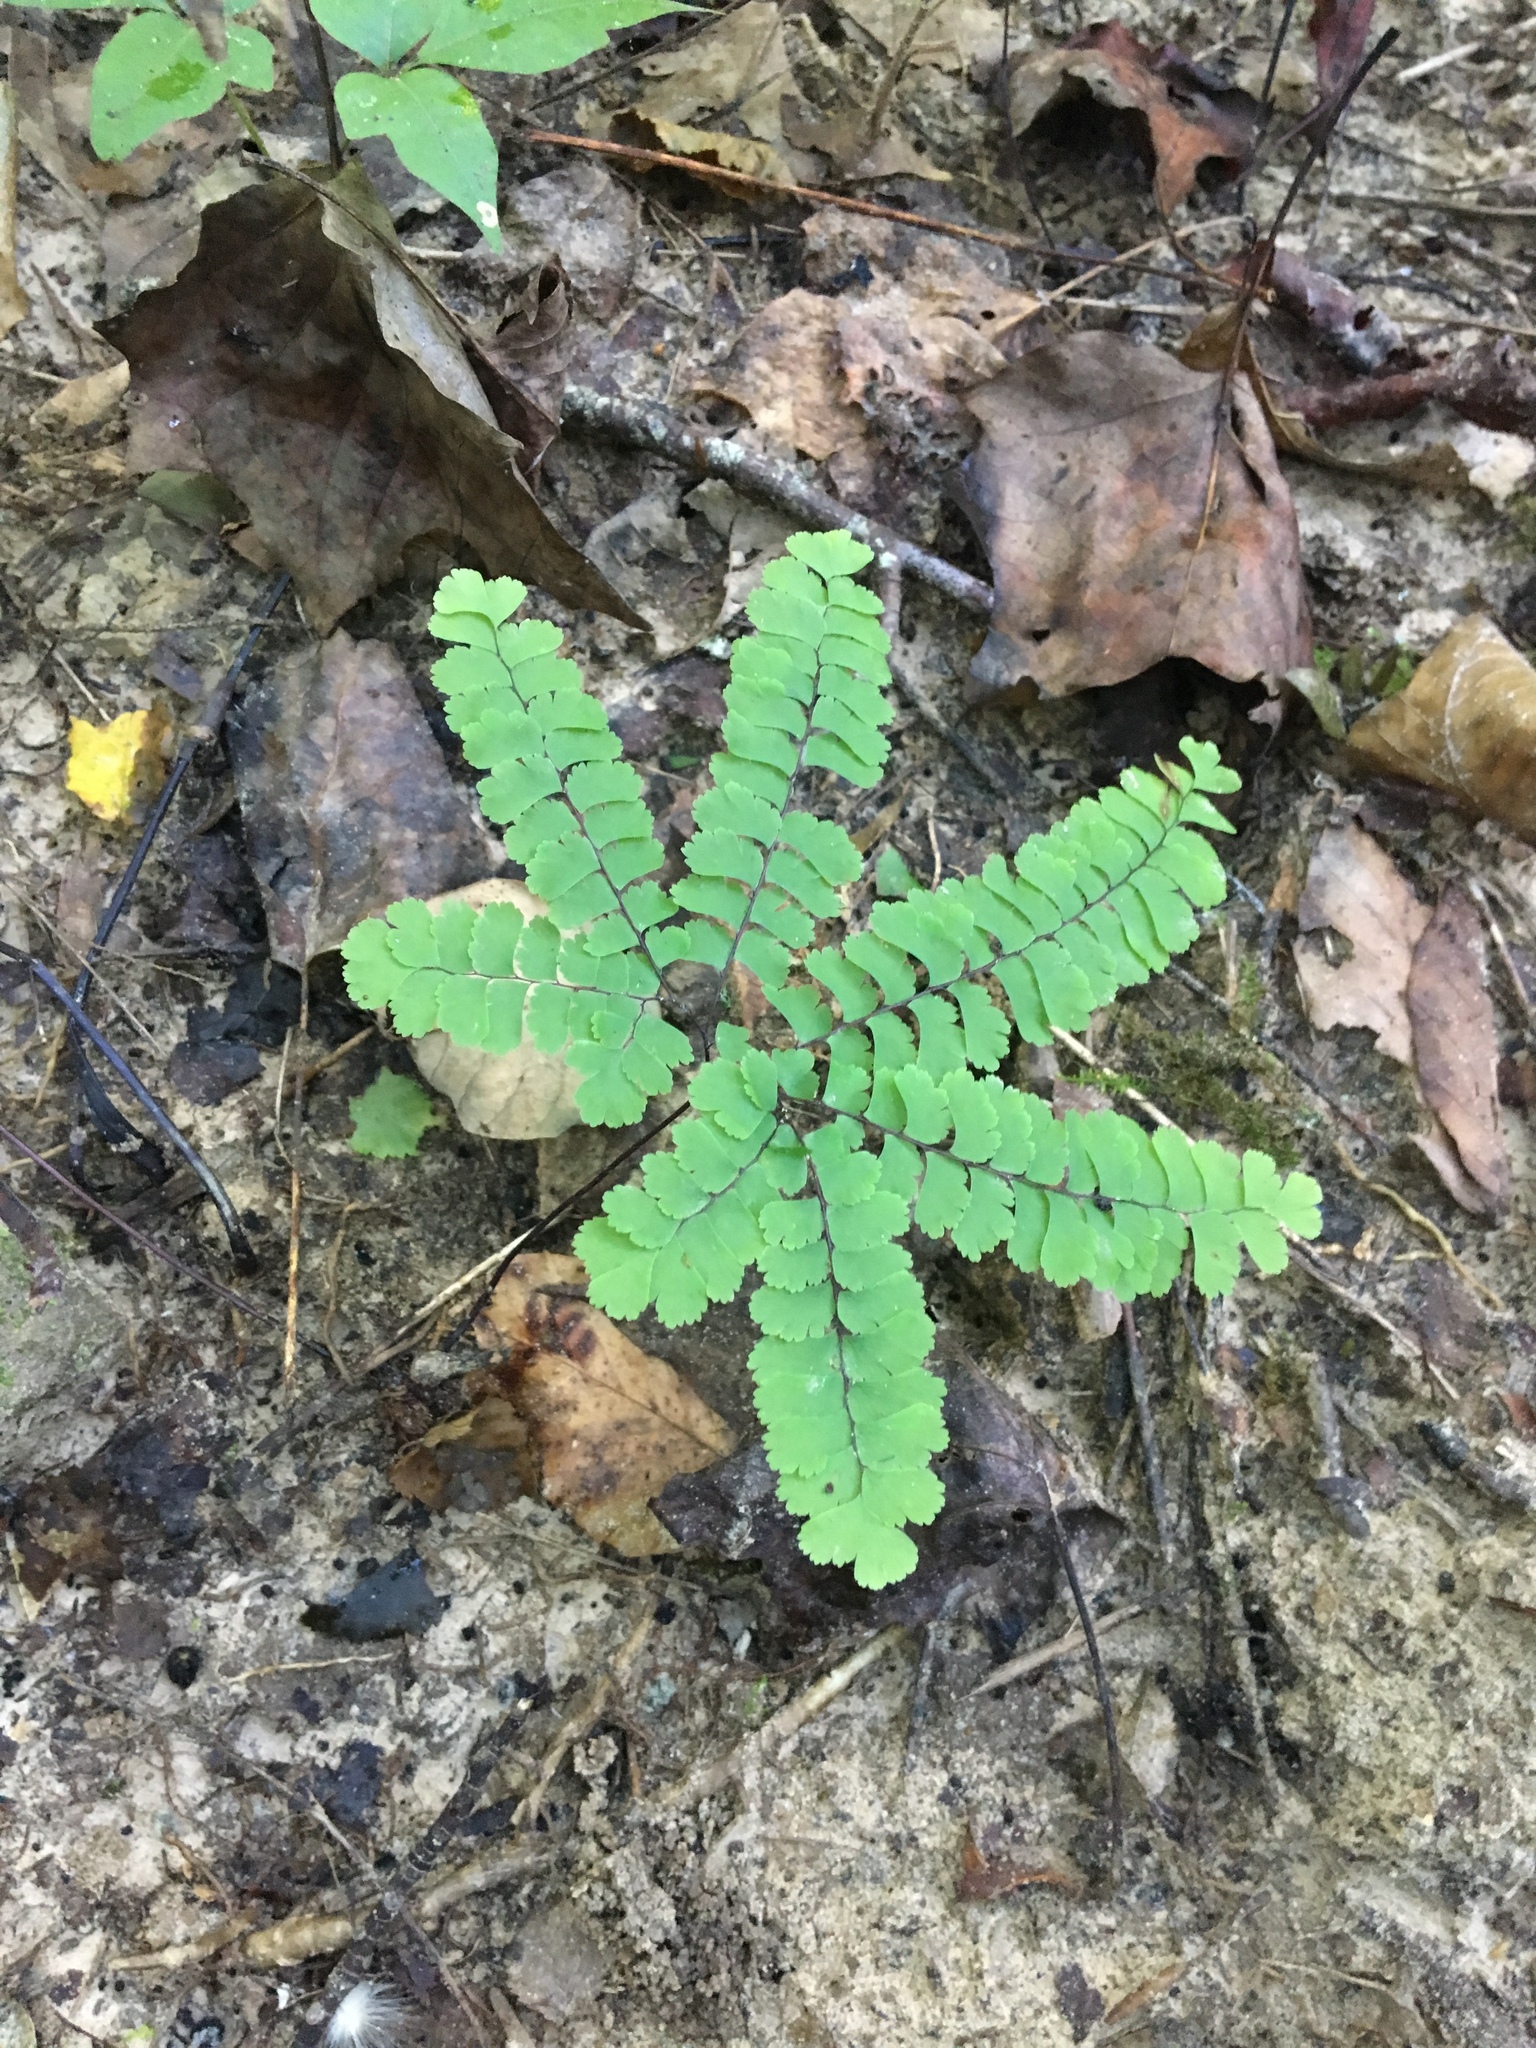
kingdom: Plantae
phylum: Tracheophyta
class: Polypodiopsida
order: Polypodiales
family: Pteridaceae
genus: Adiantum
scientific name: Adiantum pedatum
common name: Five-finger fern
